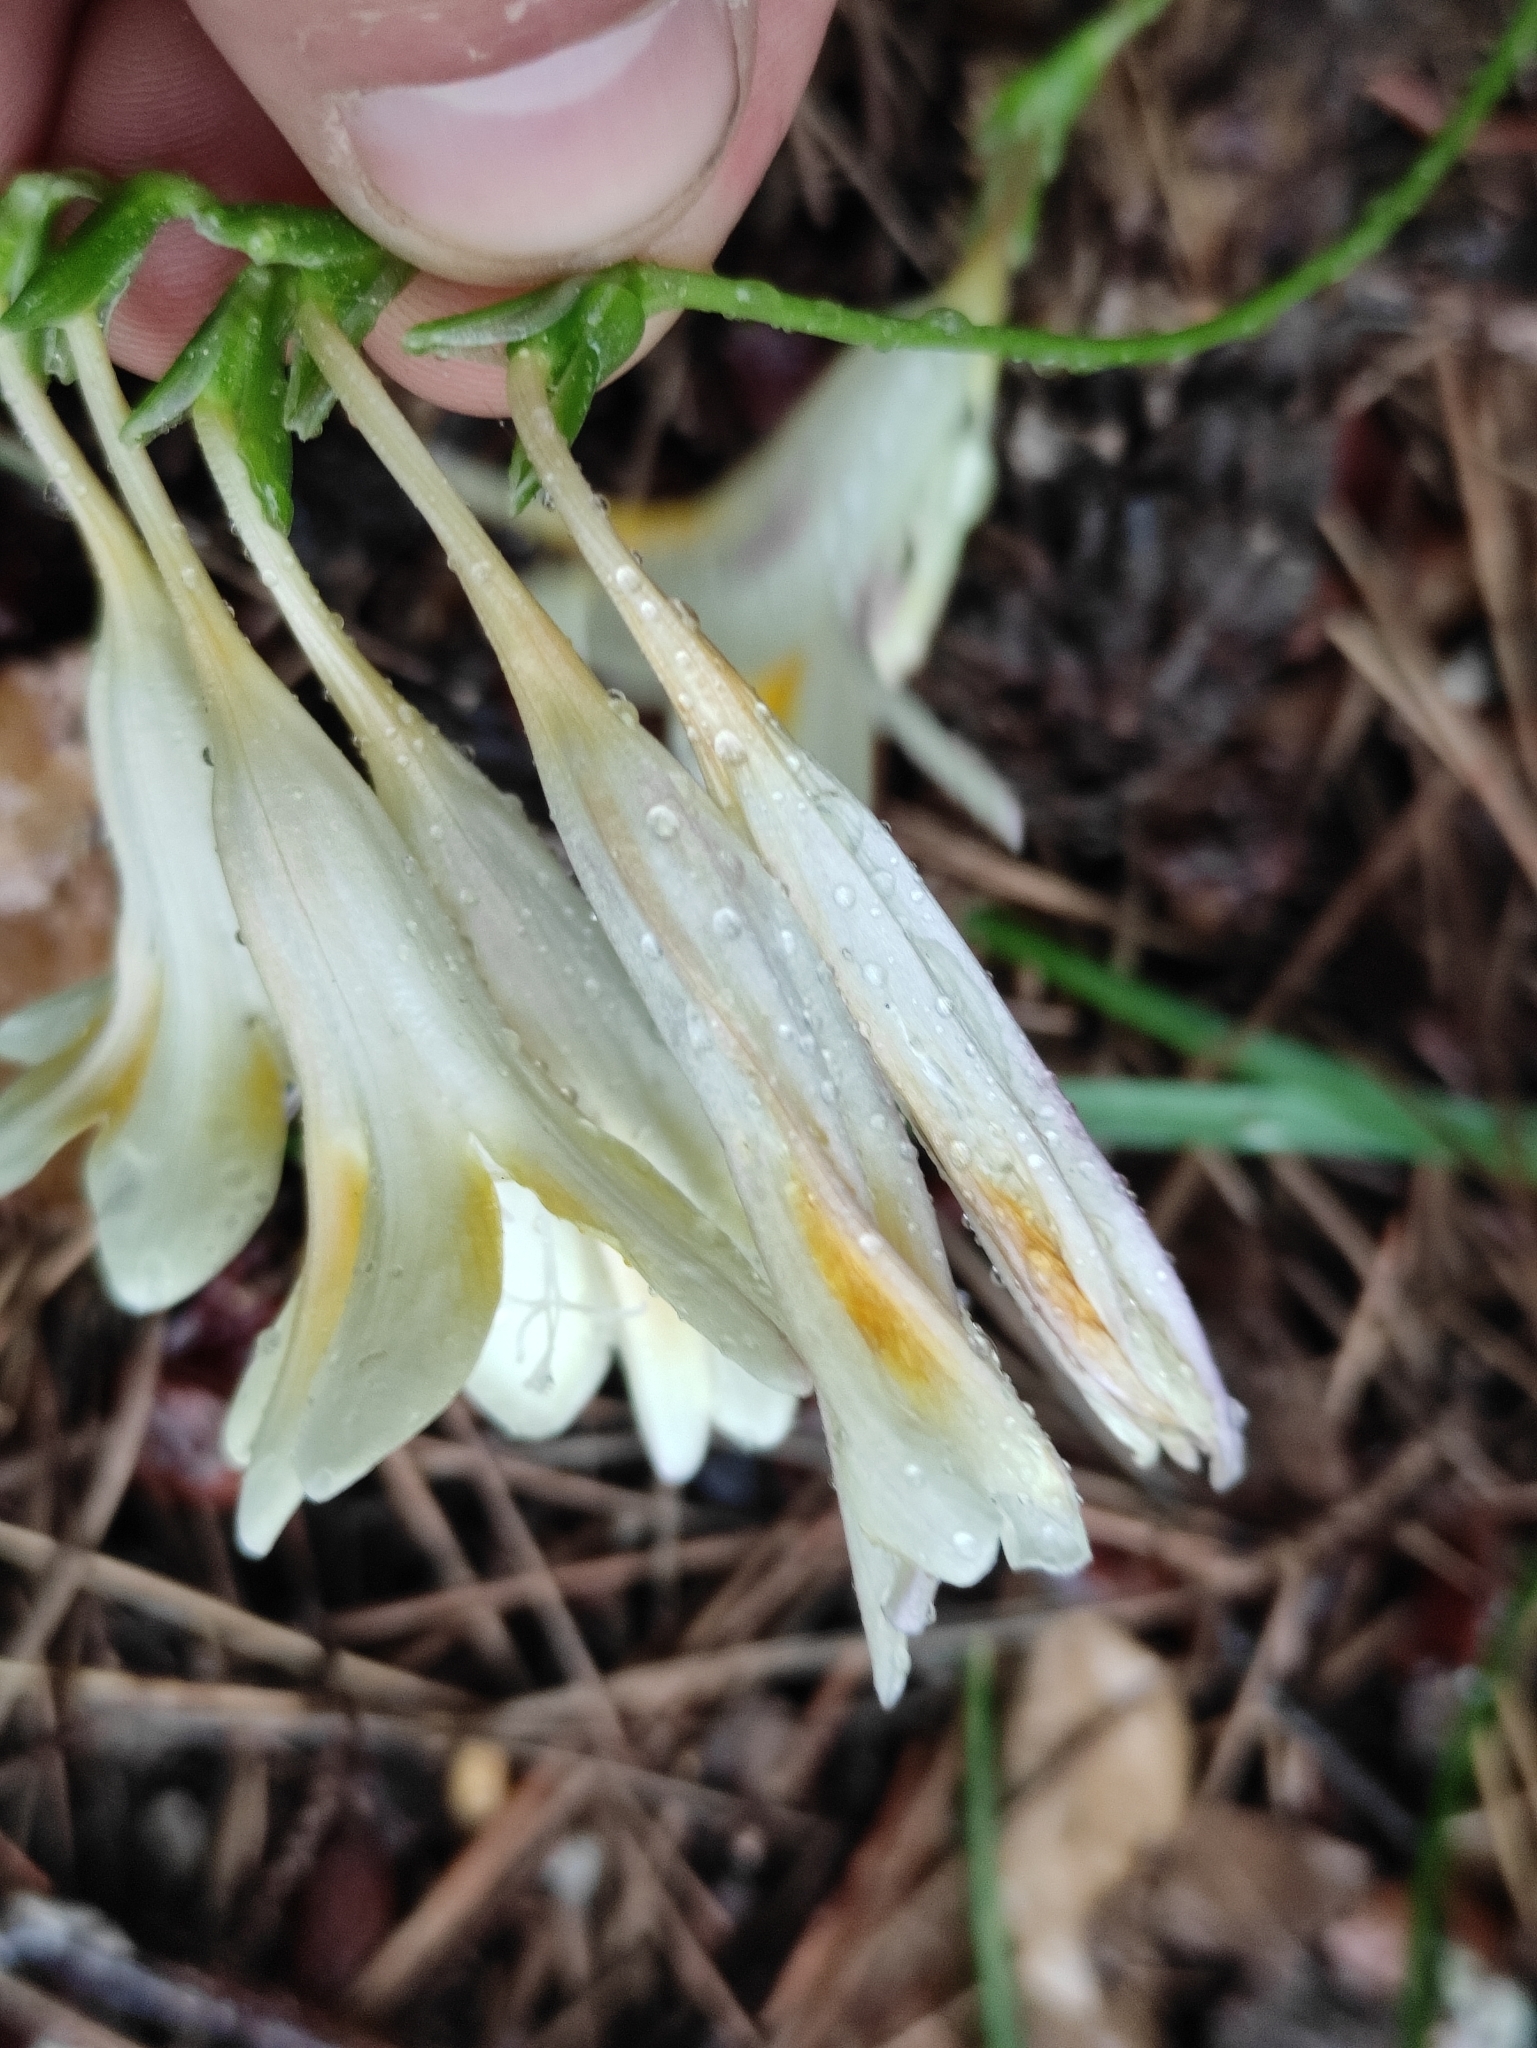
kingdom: Plantae
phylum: Tracheophyta
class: Liliopsida
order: Asparagales
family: Iridaceae
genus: Freesia
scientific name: Freesia leichtlinii
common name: Freesia
